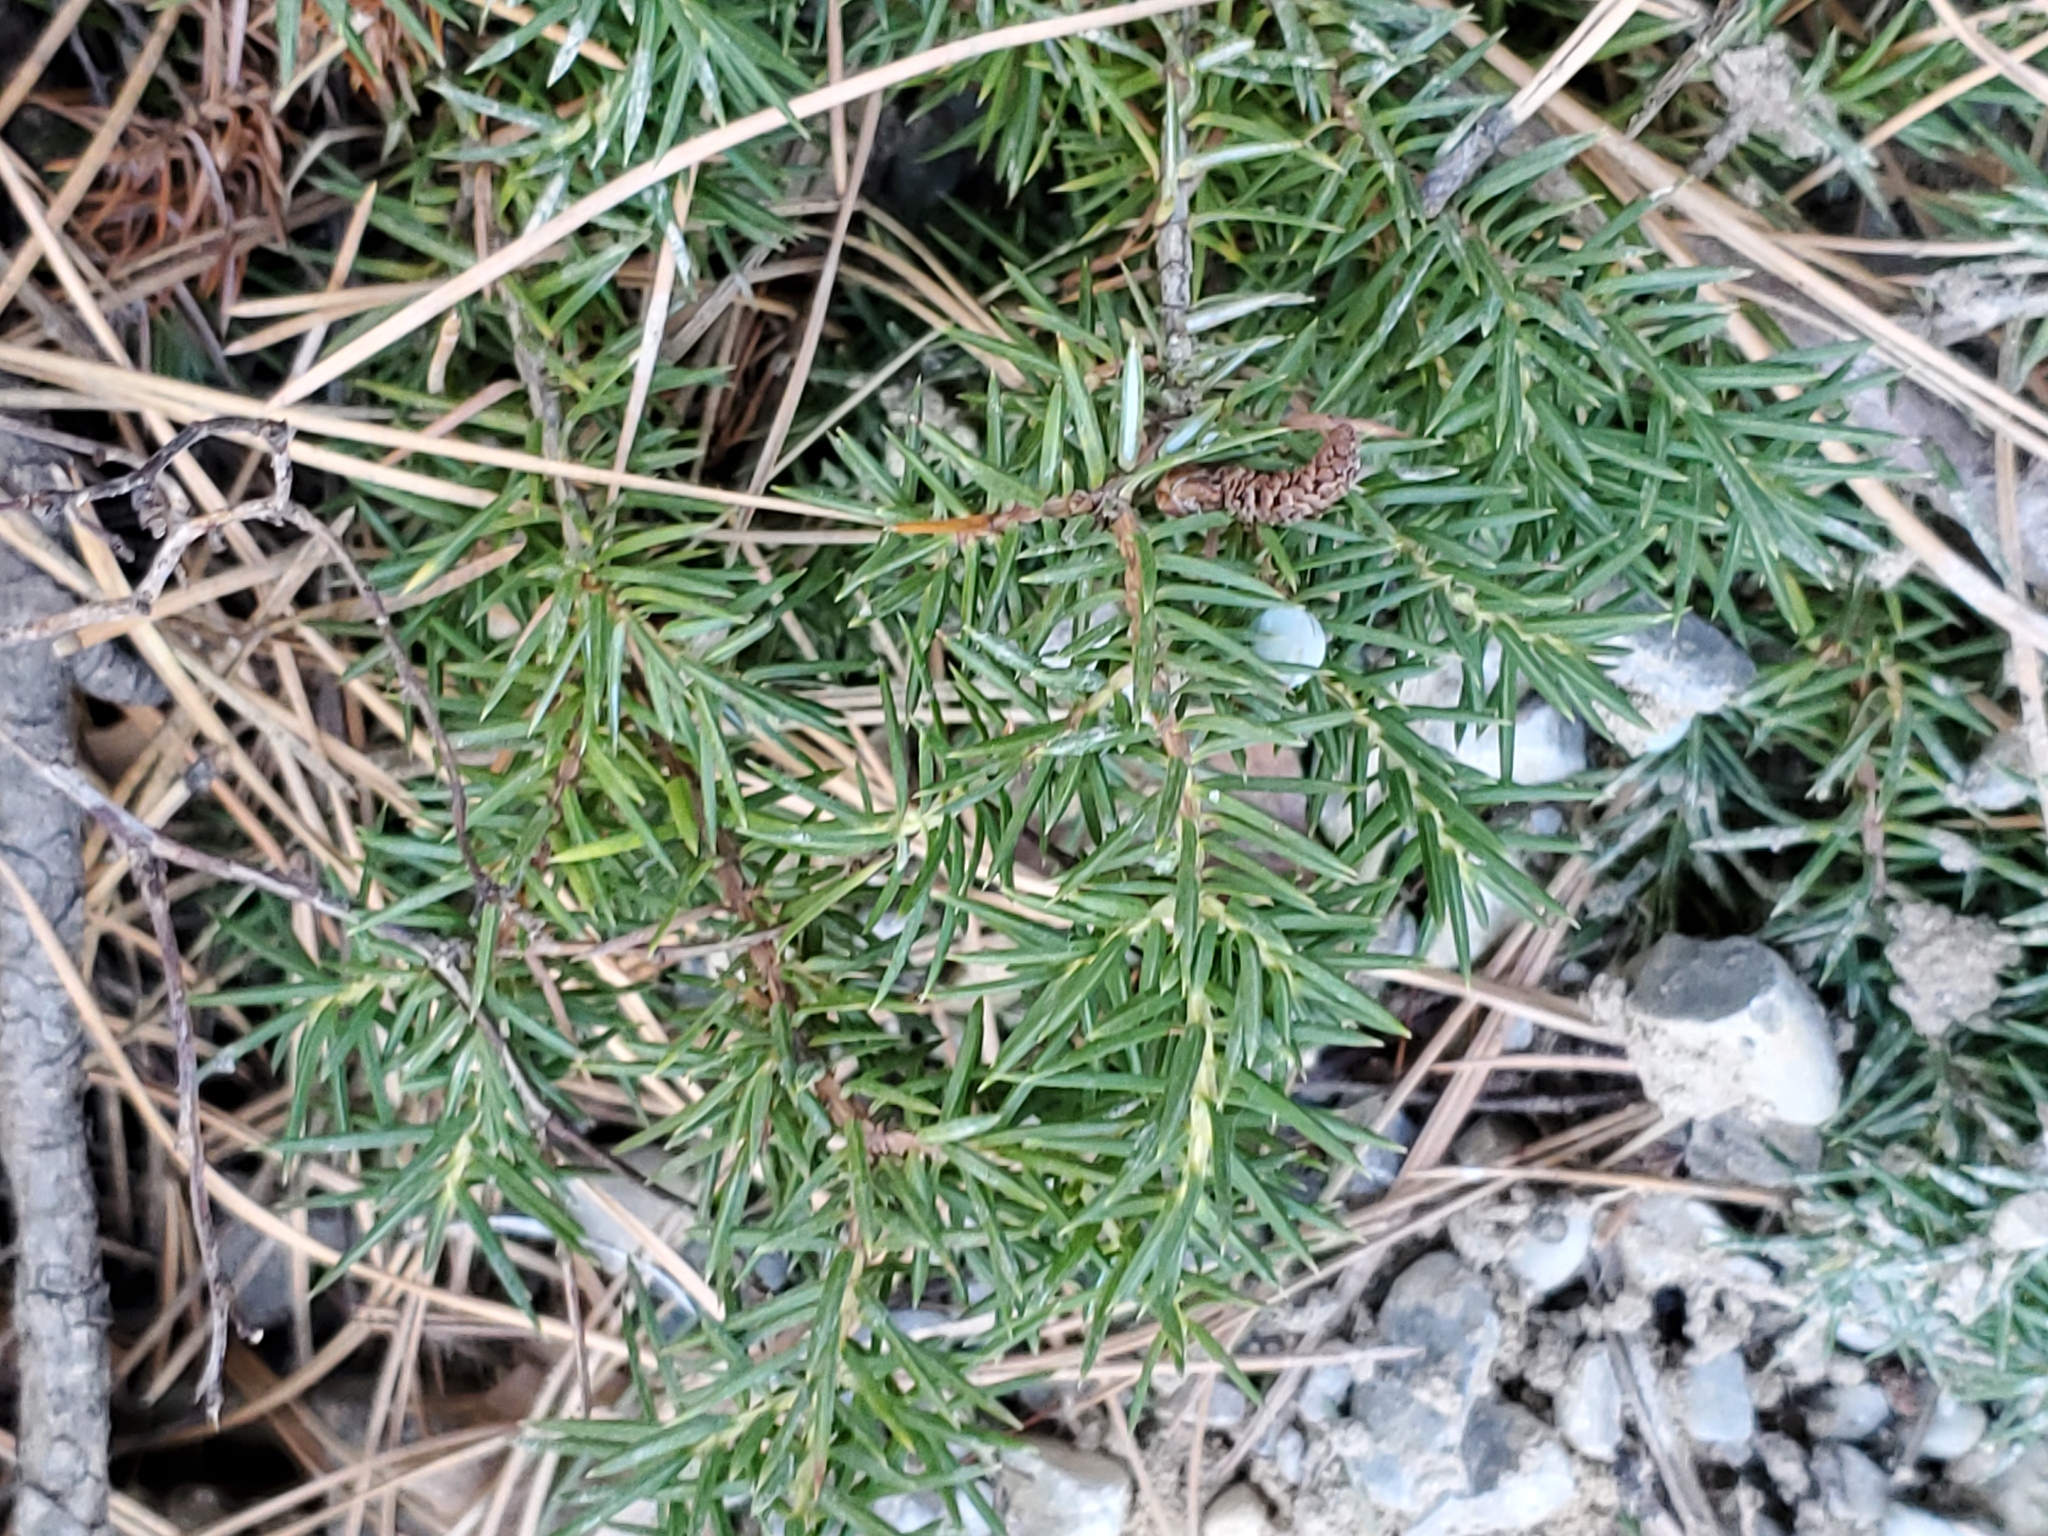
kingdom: Plantae
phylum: Tracheophyta
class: Pinopsida
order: Pinales
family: Cupressaceae
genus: Juniperus
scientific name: Juniperus communis
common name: Common juniper
